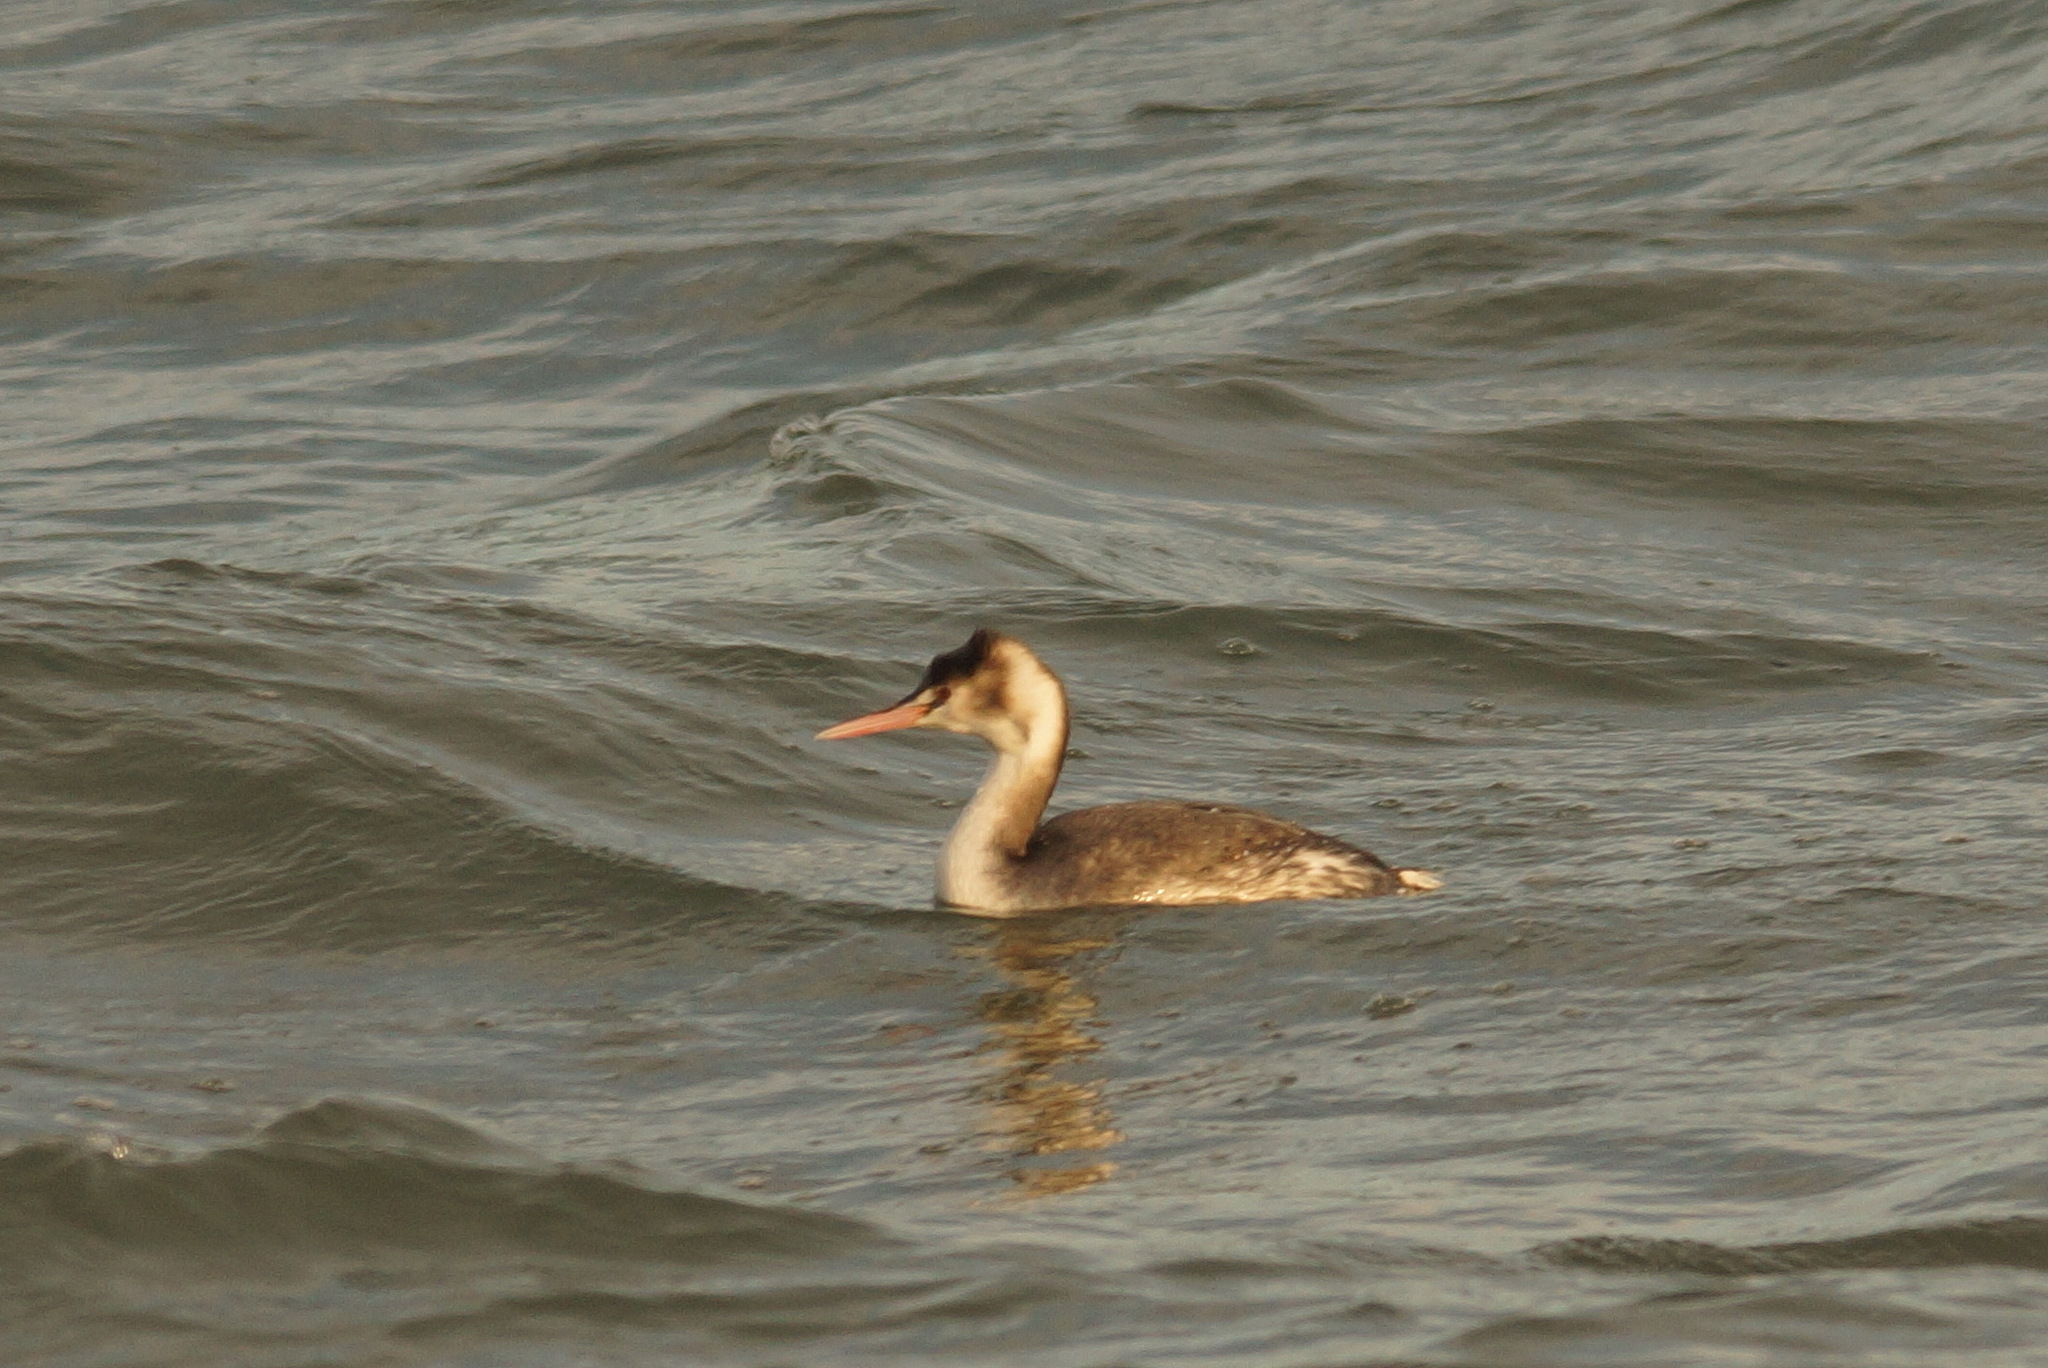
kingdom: Animalia
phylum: Chordata
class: Aves
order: Podicipediformes
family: Podicipedidae
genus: Podiceps
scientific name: Podiceps cristatus
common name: Great crested grebe
